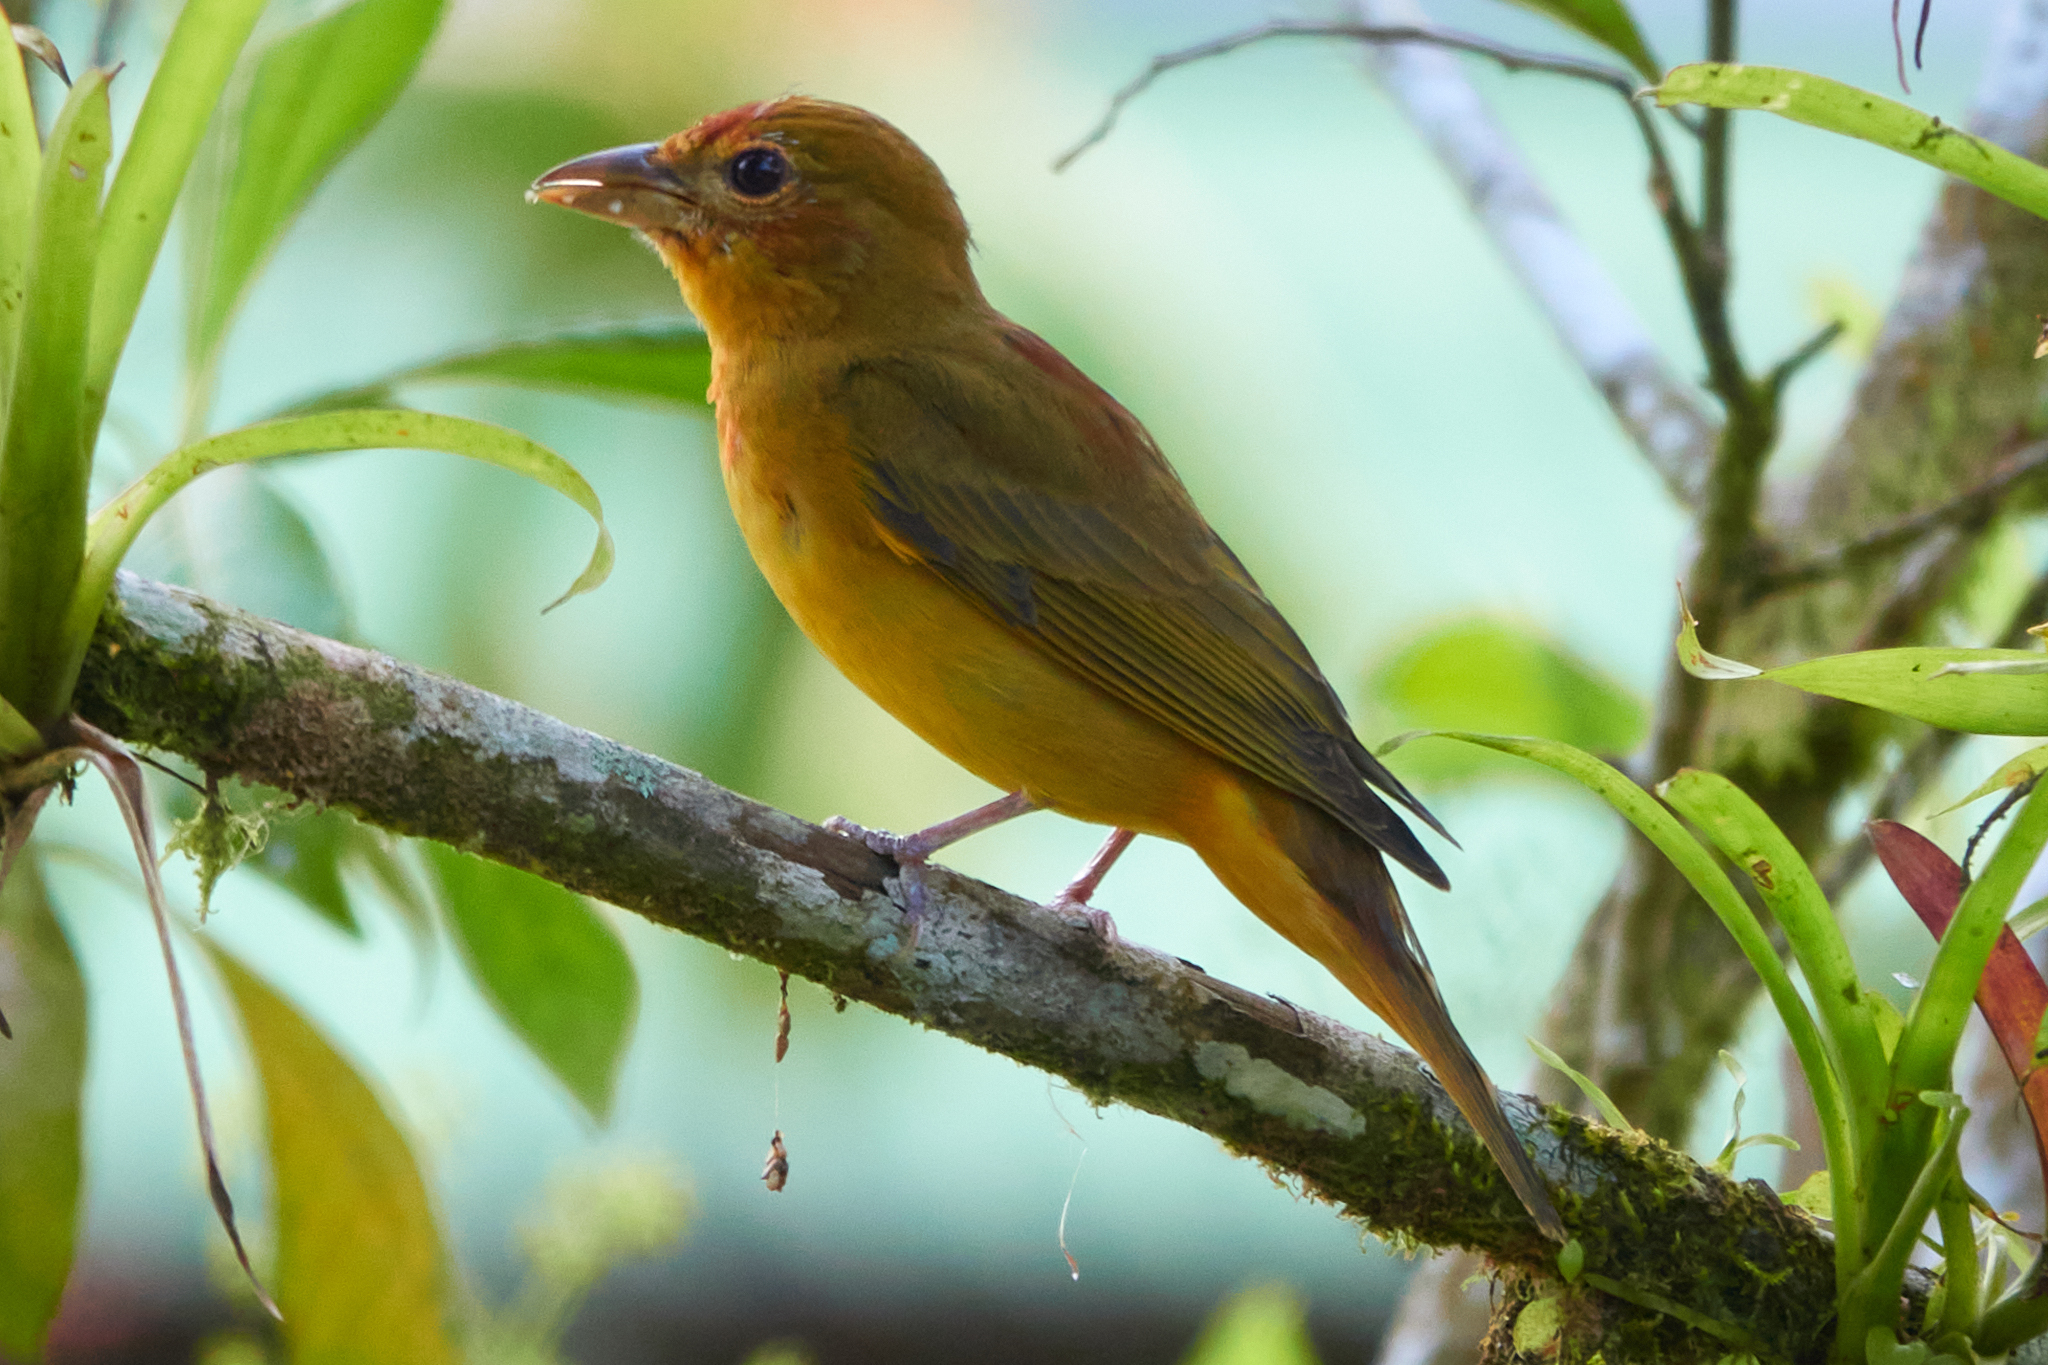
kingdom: Animalia
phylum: Chordata
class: Aves
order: Passeriformes
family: Cardinalidae
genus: Piranga
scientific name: Piranga rubra
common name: Summer tanager
